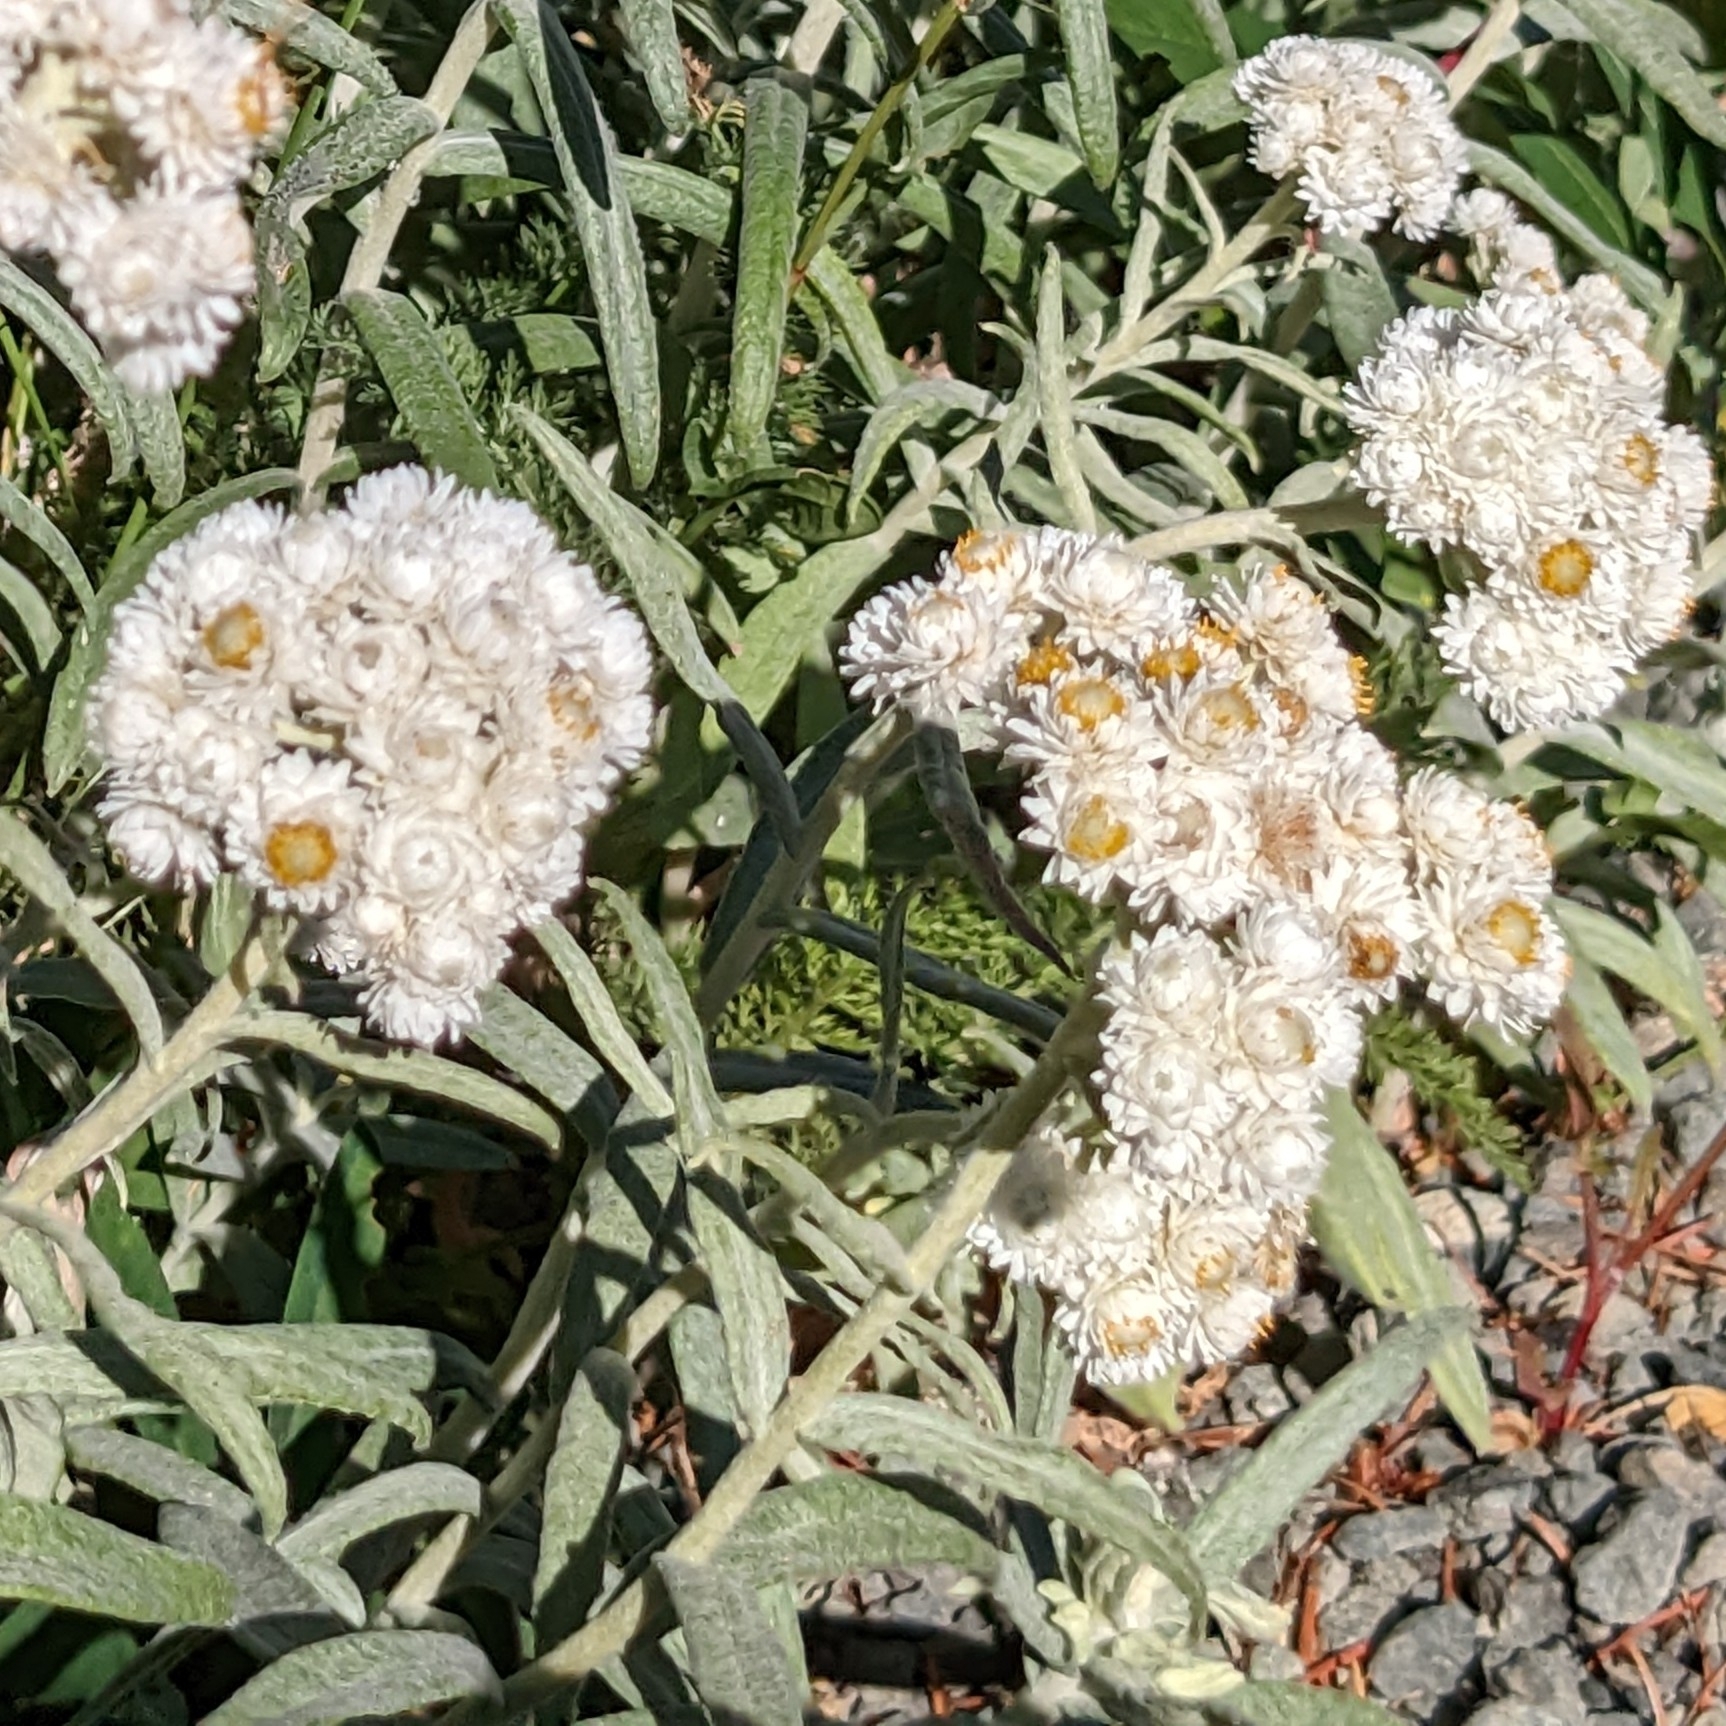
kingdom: Plantae
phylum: Tracheophyta
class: Magnoliopsida
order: Asterales
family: Asteraceae
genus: Anaphalis
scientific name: Anaphalis margaritacea
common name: Pearly everlasting
